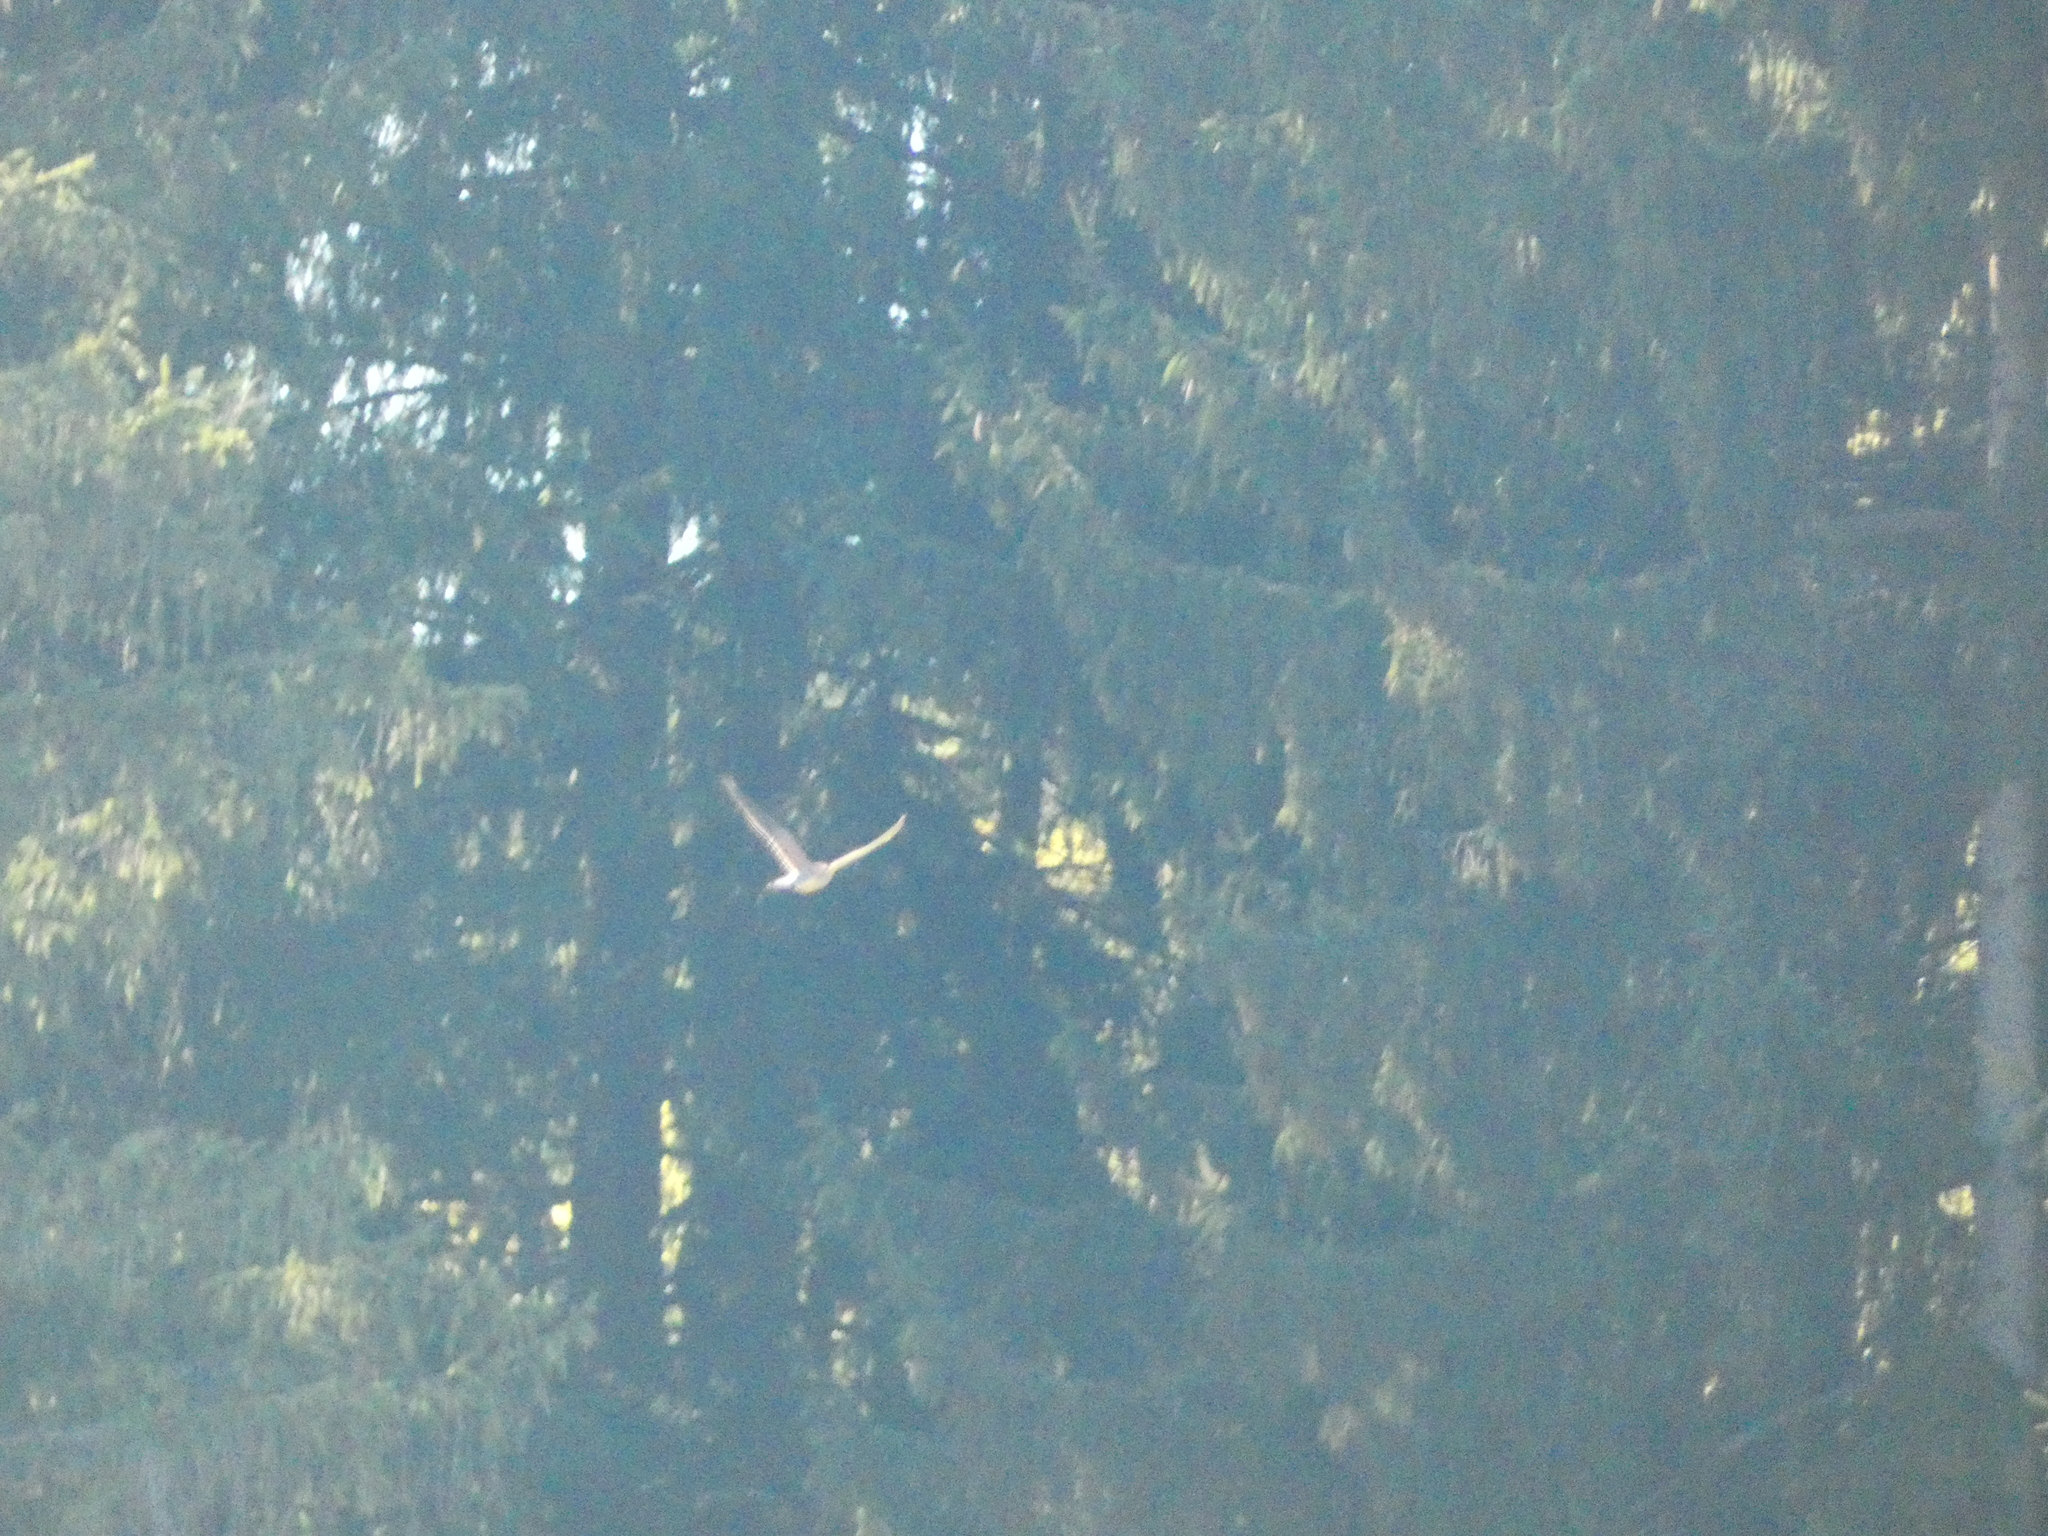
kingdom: Animalia
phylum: Chordata
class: Aves
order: Falconiformes
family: Falconidae
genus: Falco
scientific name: Falco tinnunculus
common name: Common kestrel
